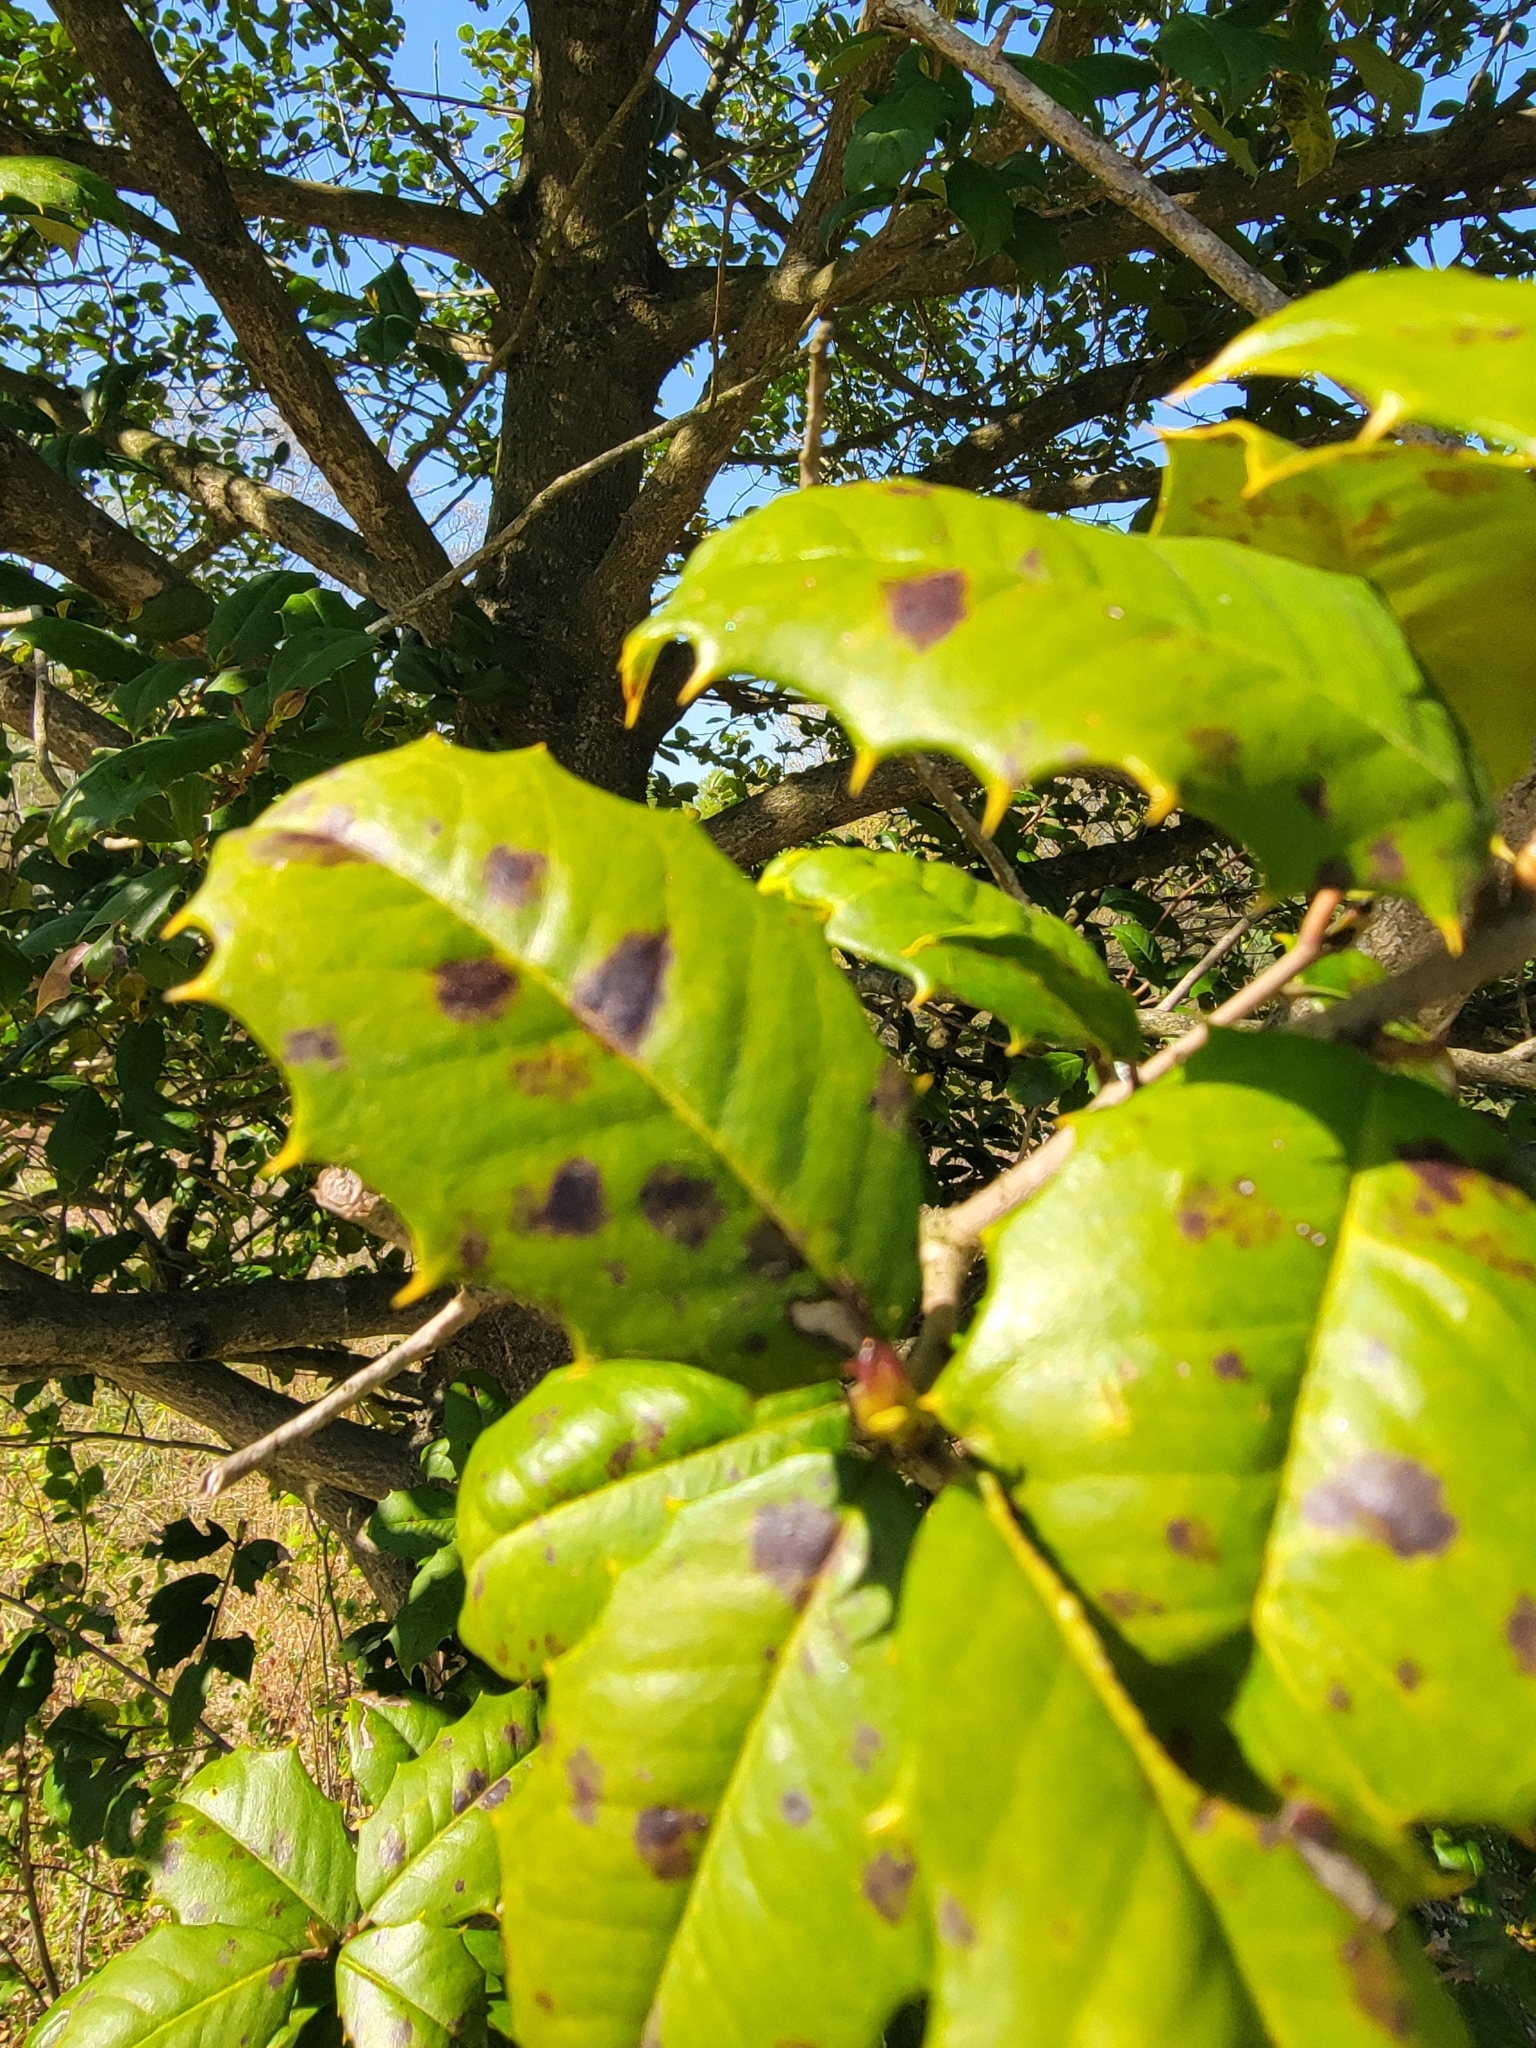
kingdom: Chromista
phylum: Oomycota
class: Peronosporea
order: Peronosporales
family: Peronosporaceae
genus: Phytophthora
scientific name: Phytophthora ilicis
